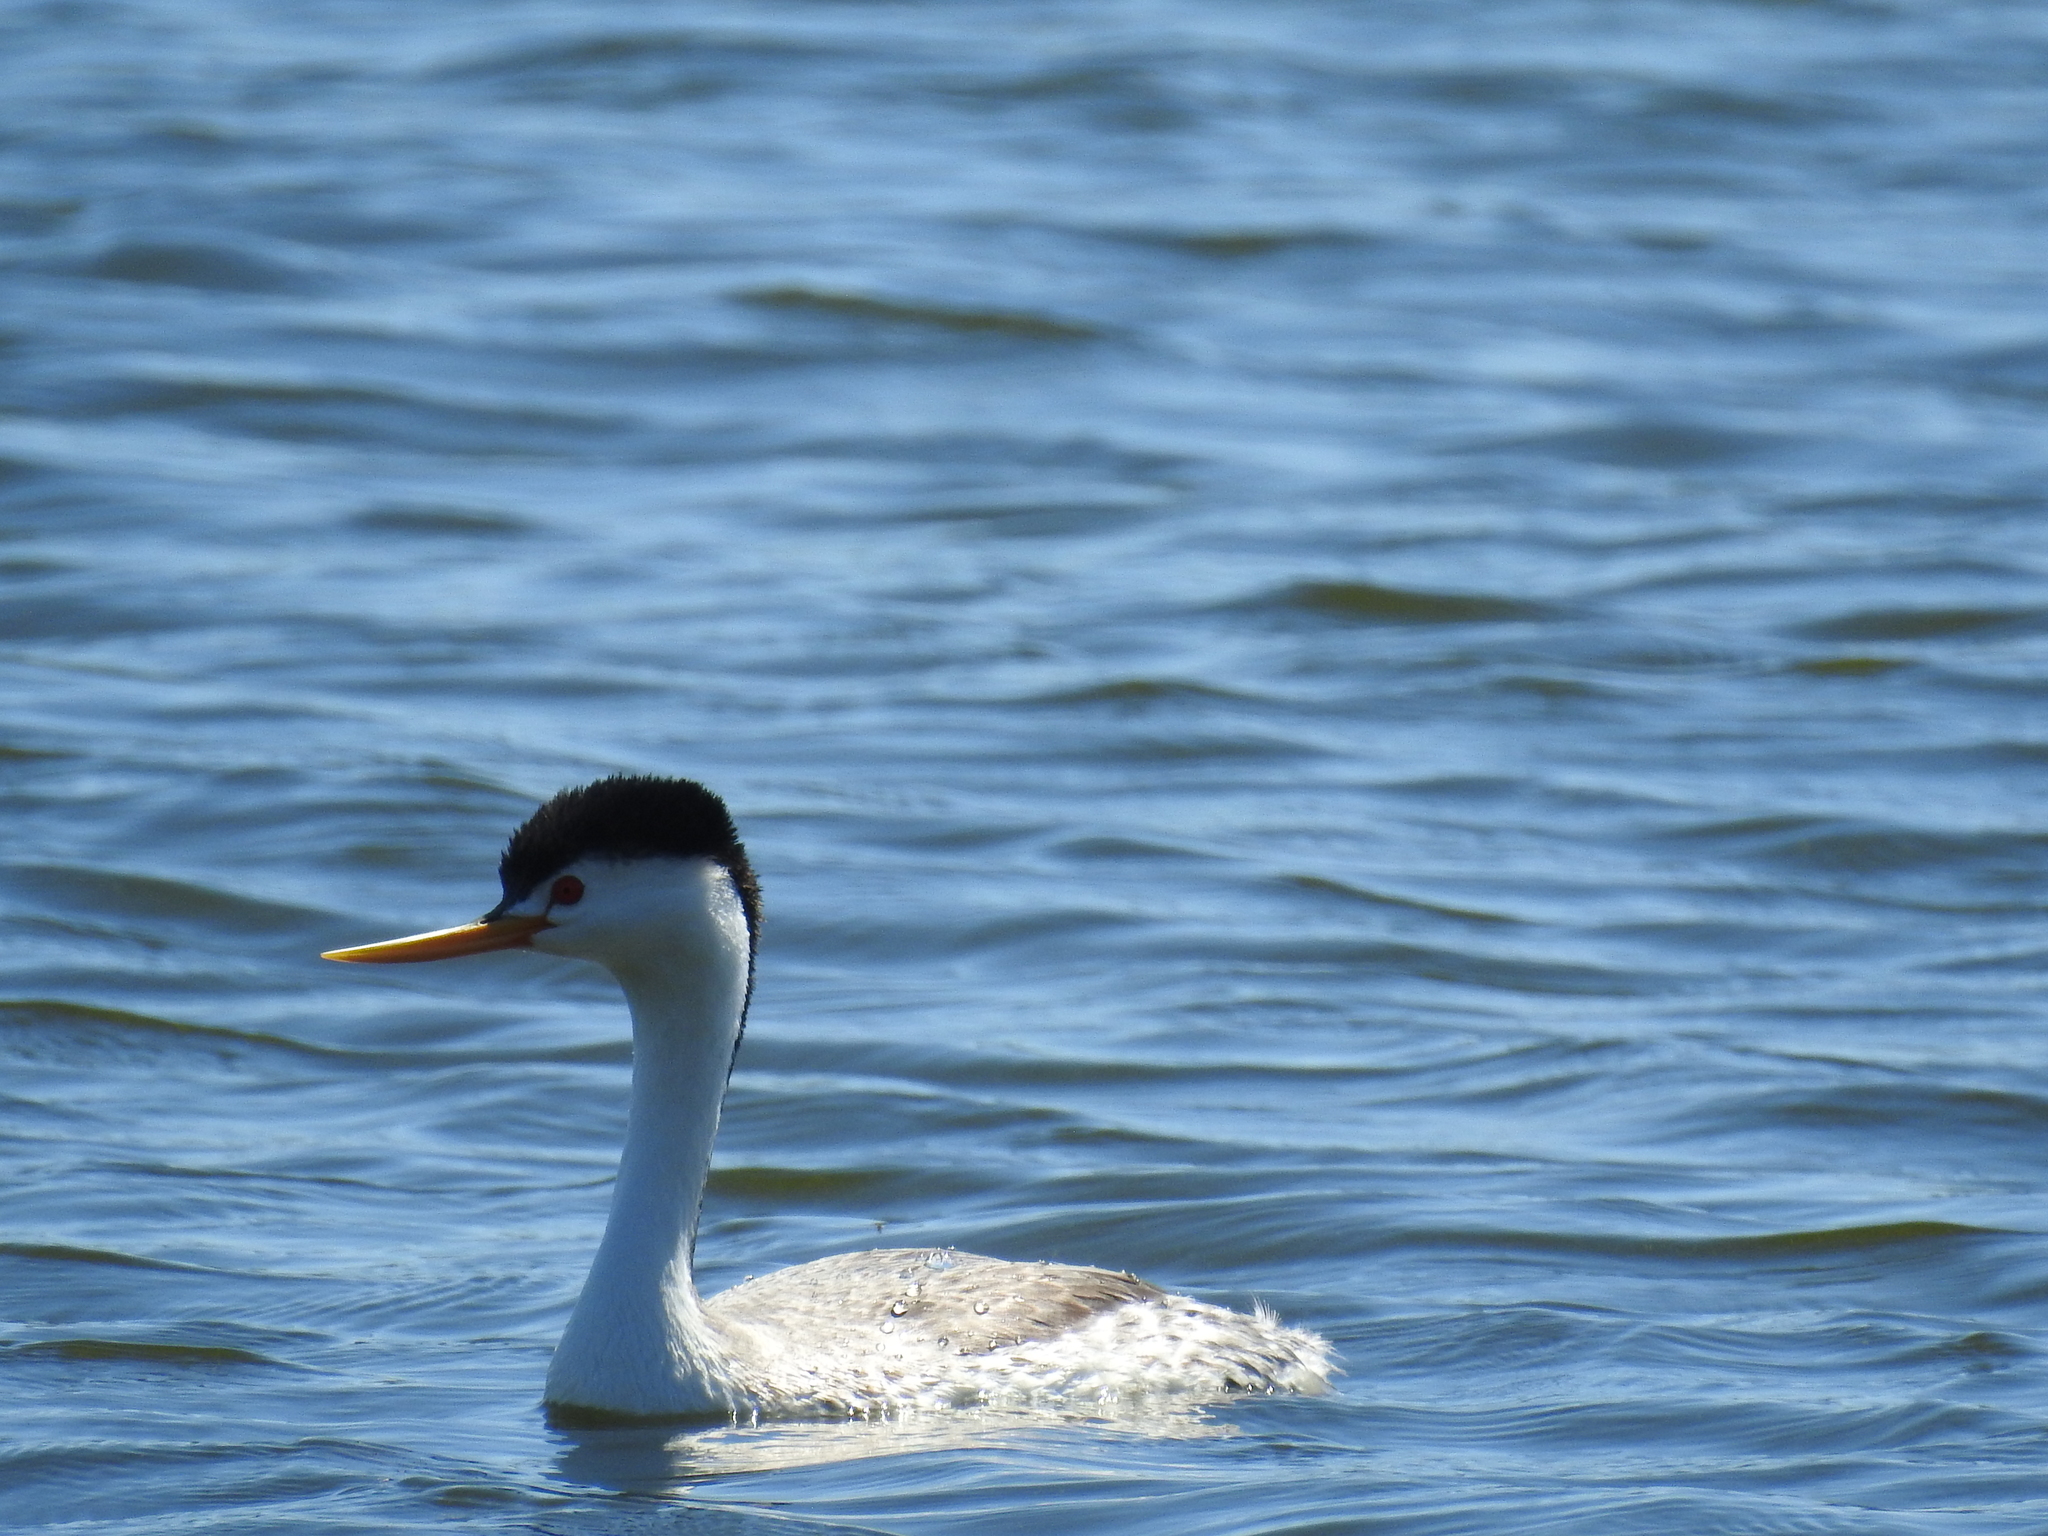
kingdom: Animalia
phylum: Chordata
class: Aves
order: Podicipediformes
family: Podicipedidae
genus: Aechmophorus
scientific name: Aechmophorus clarkii
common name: Clark's grebe
